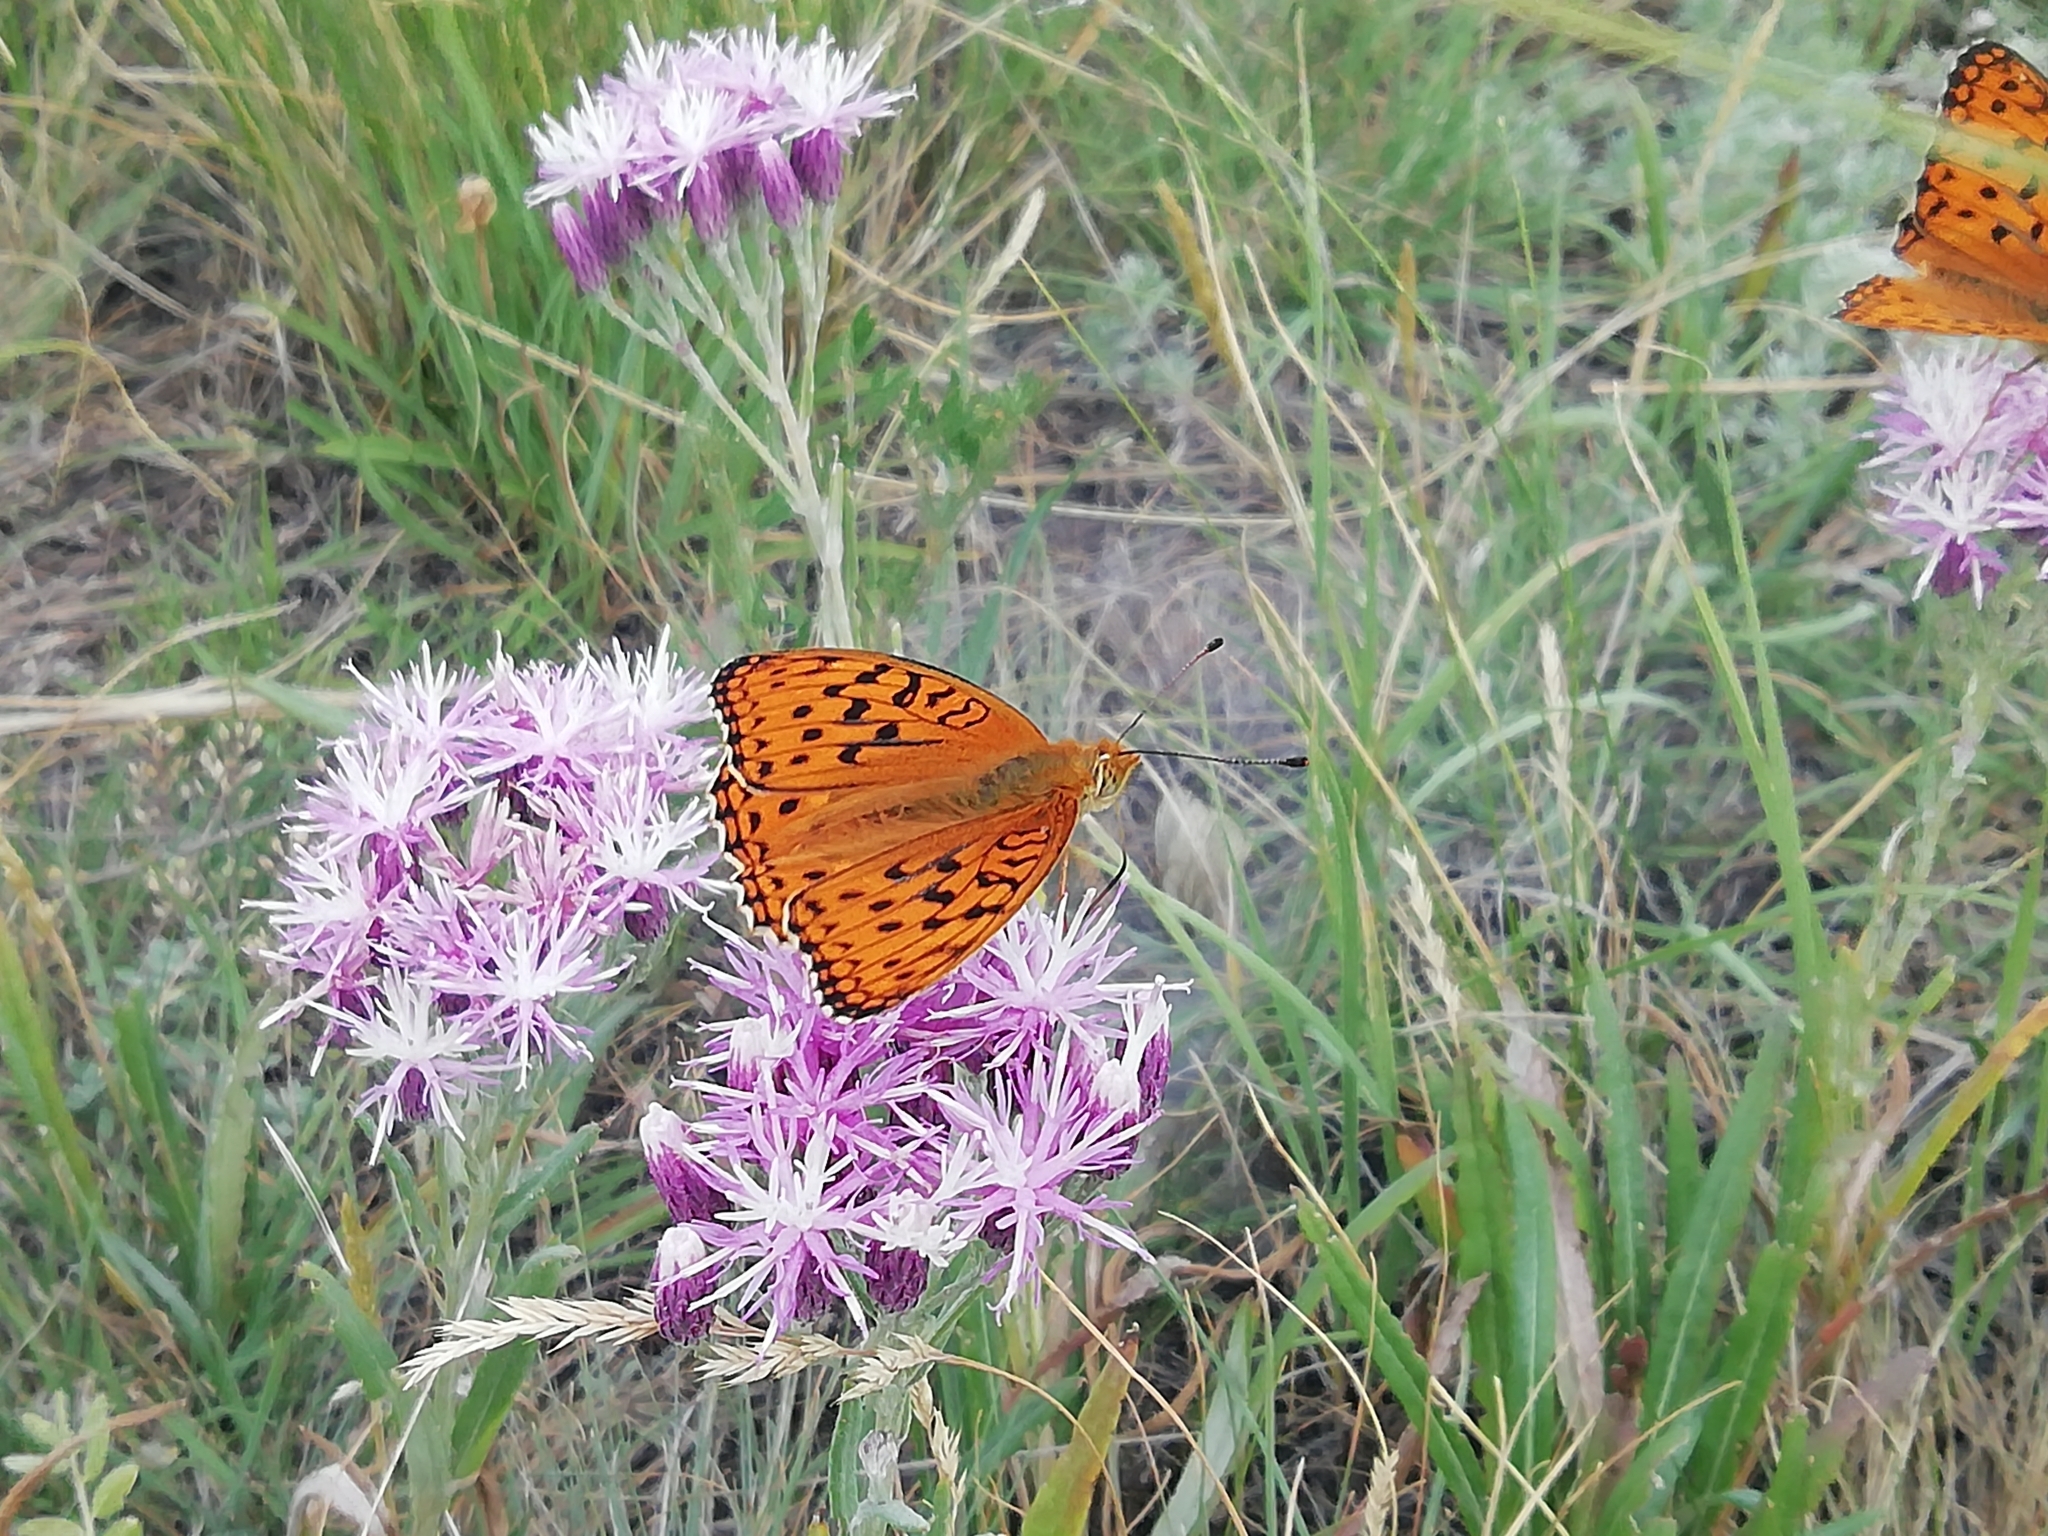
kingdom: Animalia
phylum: Arthropoda
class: Insecta
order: Lepidoptera
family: Nymphalidae
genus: Fabriciana
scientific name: Fabriciana adippe
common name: High brown fritillary
